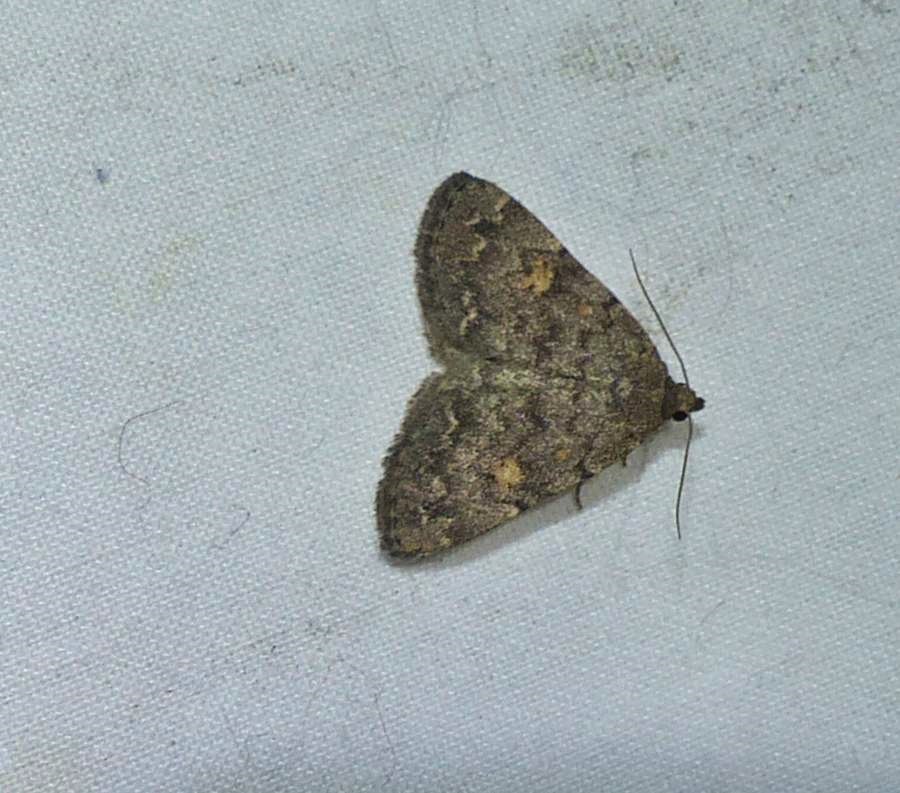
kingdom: Animalia
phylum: Arthropoda
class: Insecta
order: Lepidoptera
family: Erebidae
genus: Idia
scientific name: Idia aemula
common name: Common idia moth
